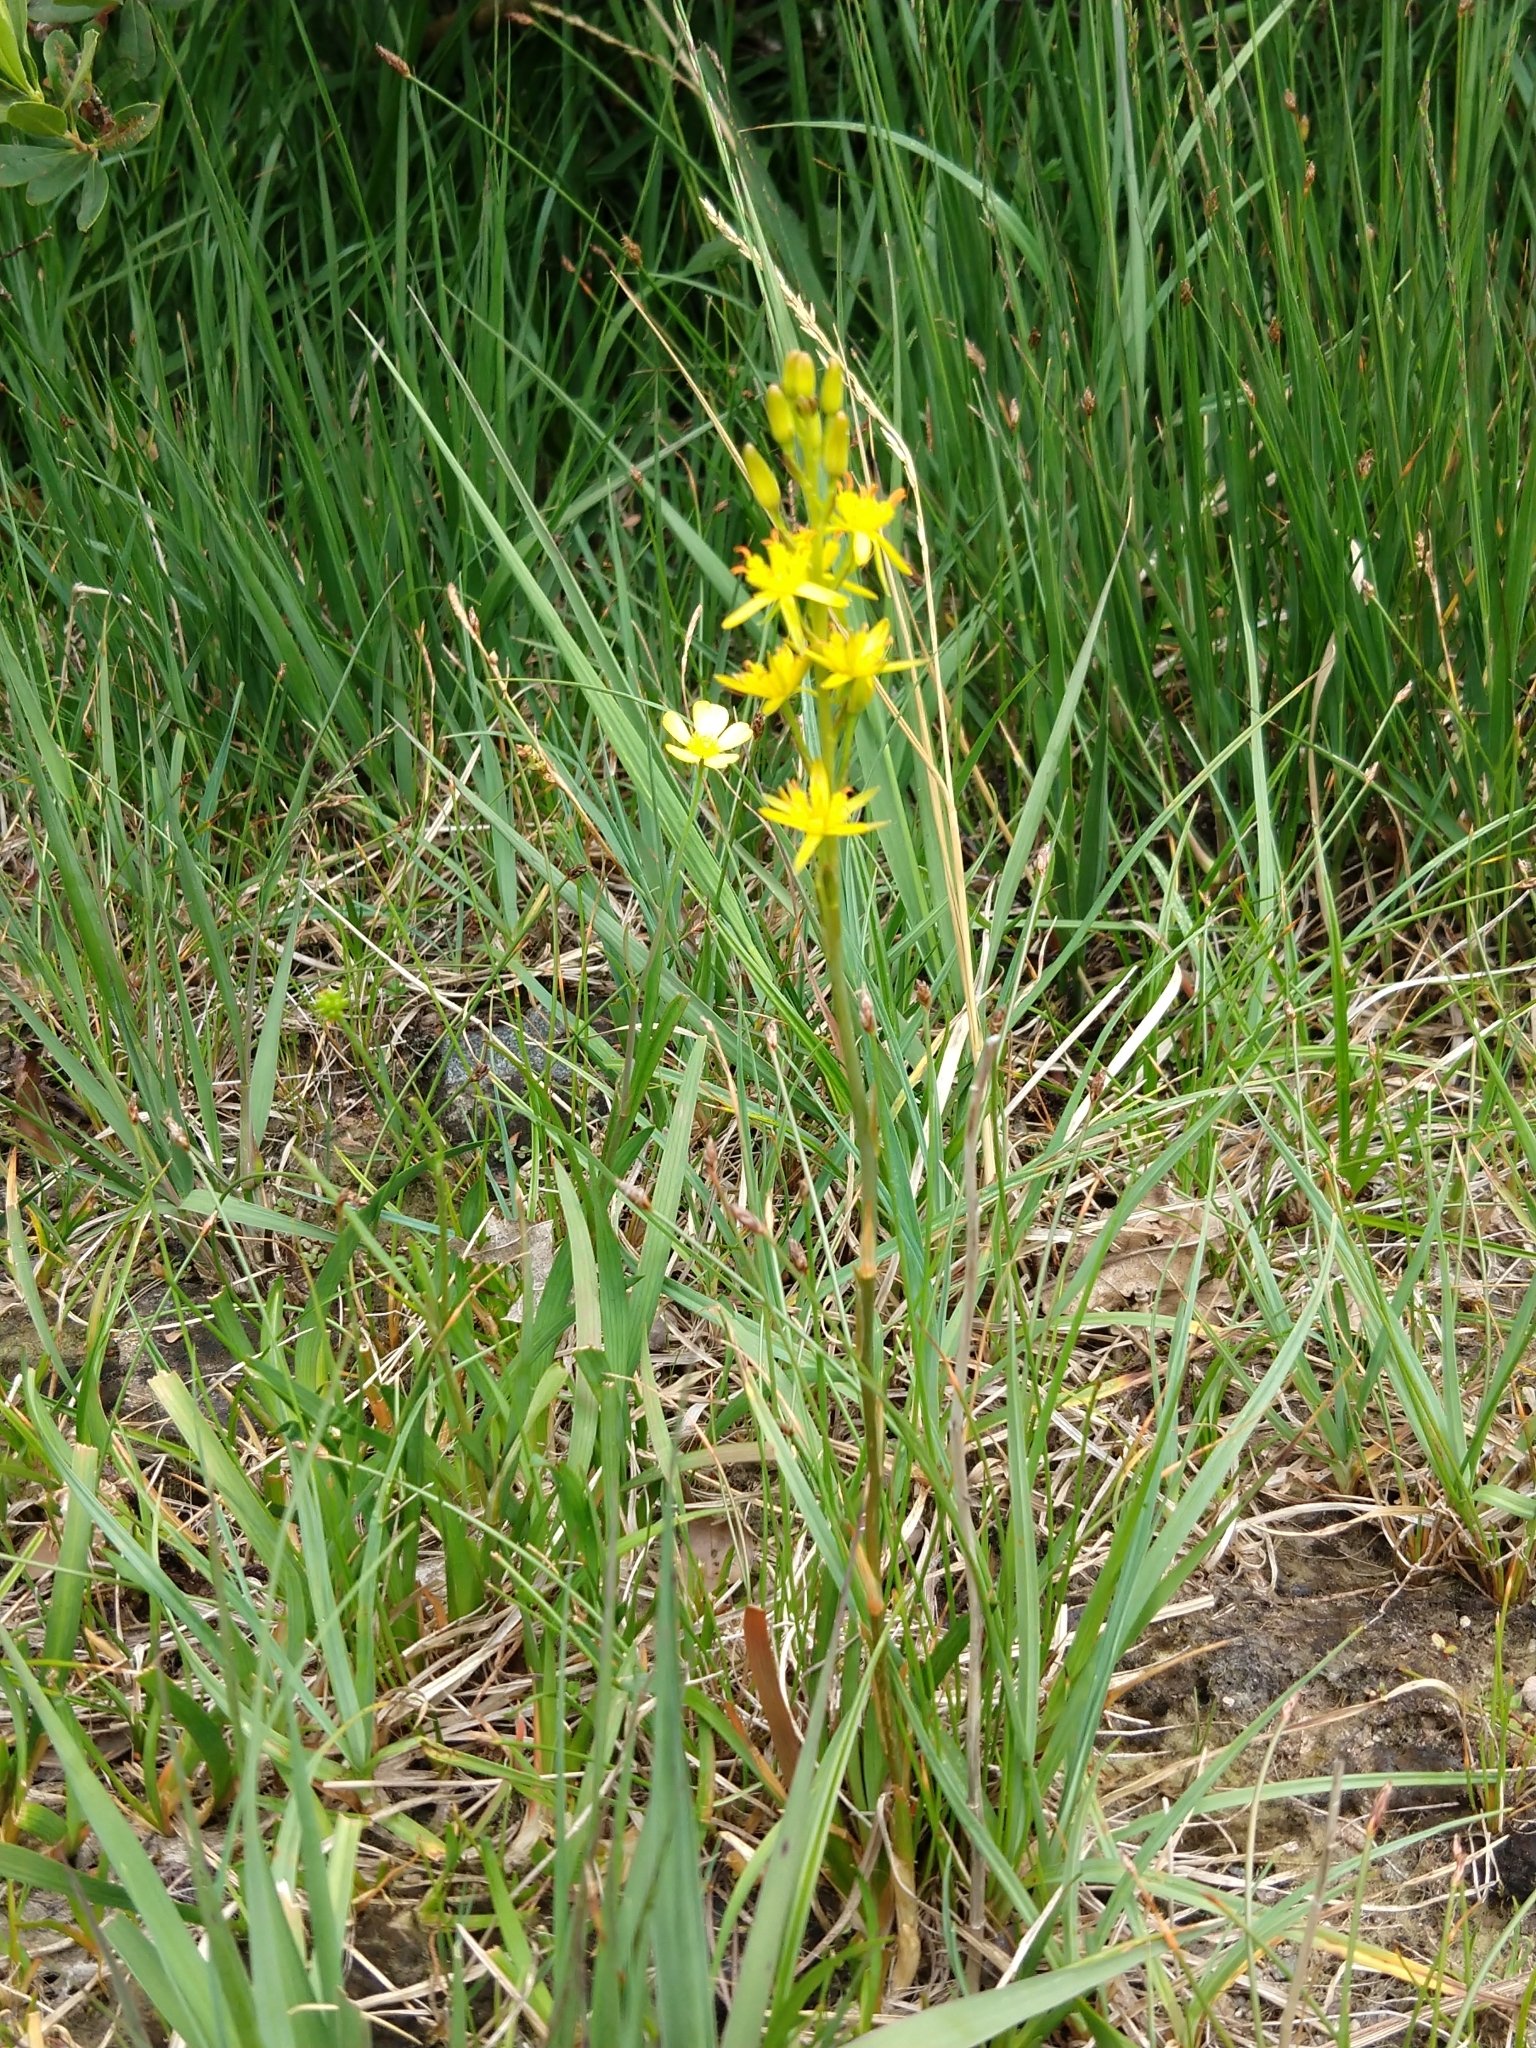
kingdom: Plantae
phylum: Tracheophyta
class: Liliopsida
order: Dioscoreales
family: Nartheciaceae
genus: Narthecium
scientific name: Narthecium ossifragum
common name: Bog asphodel
